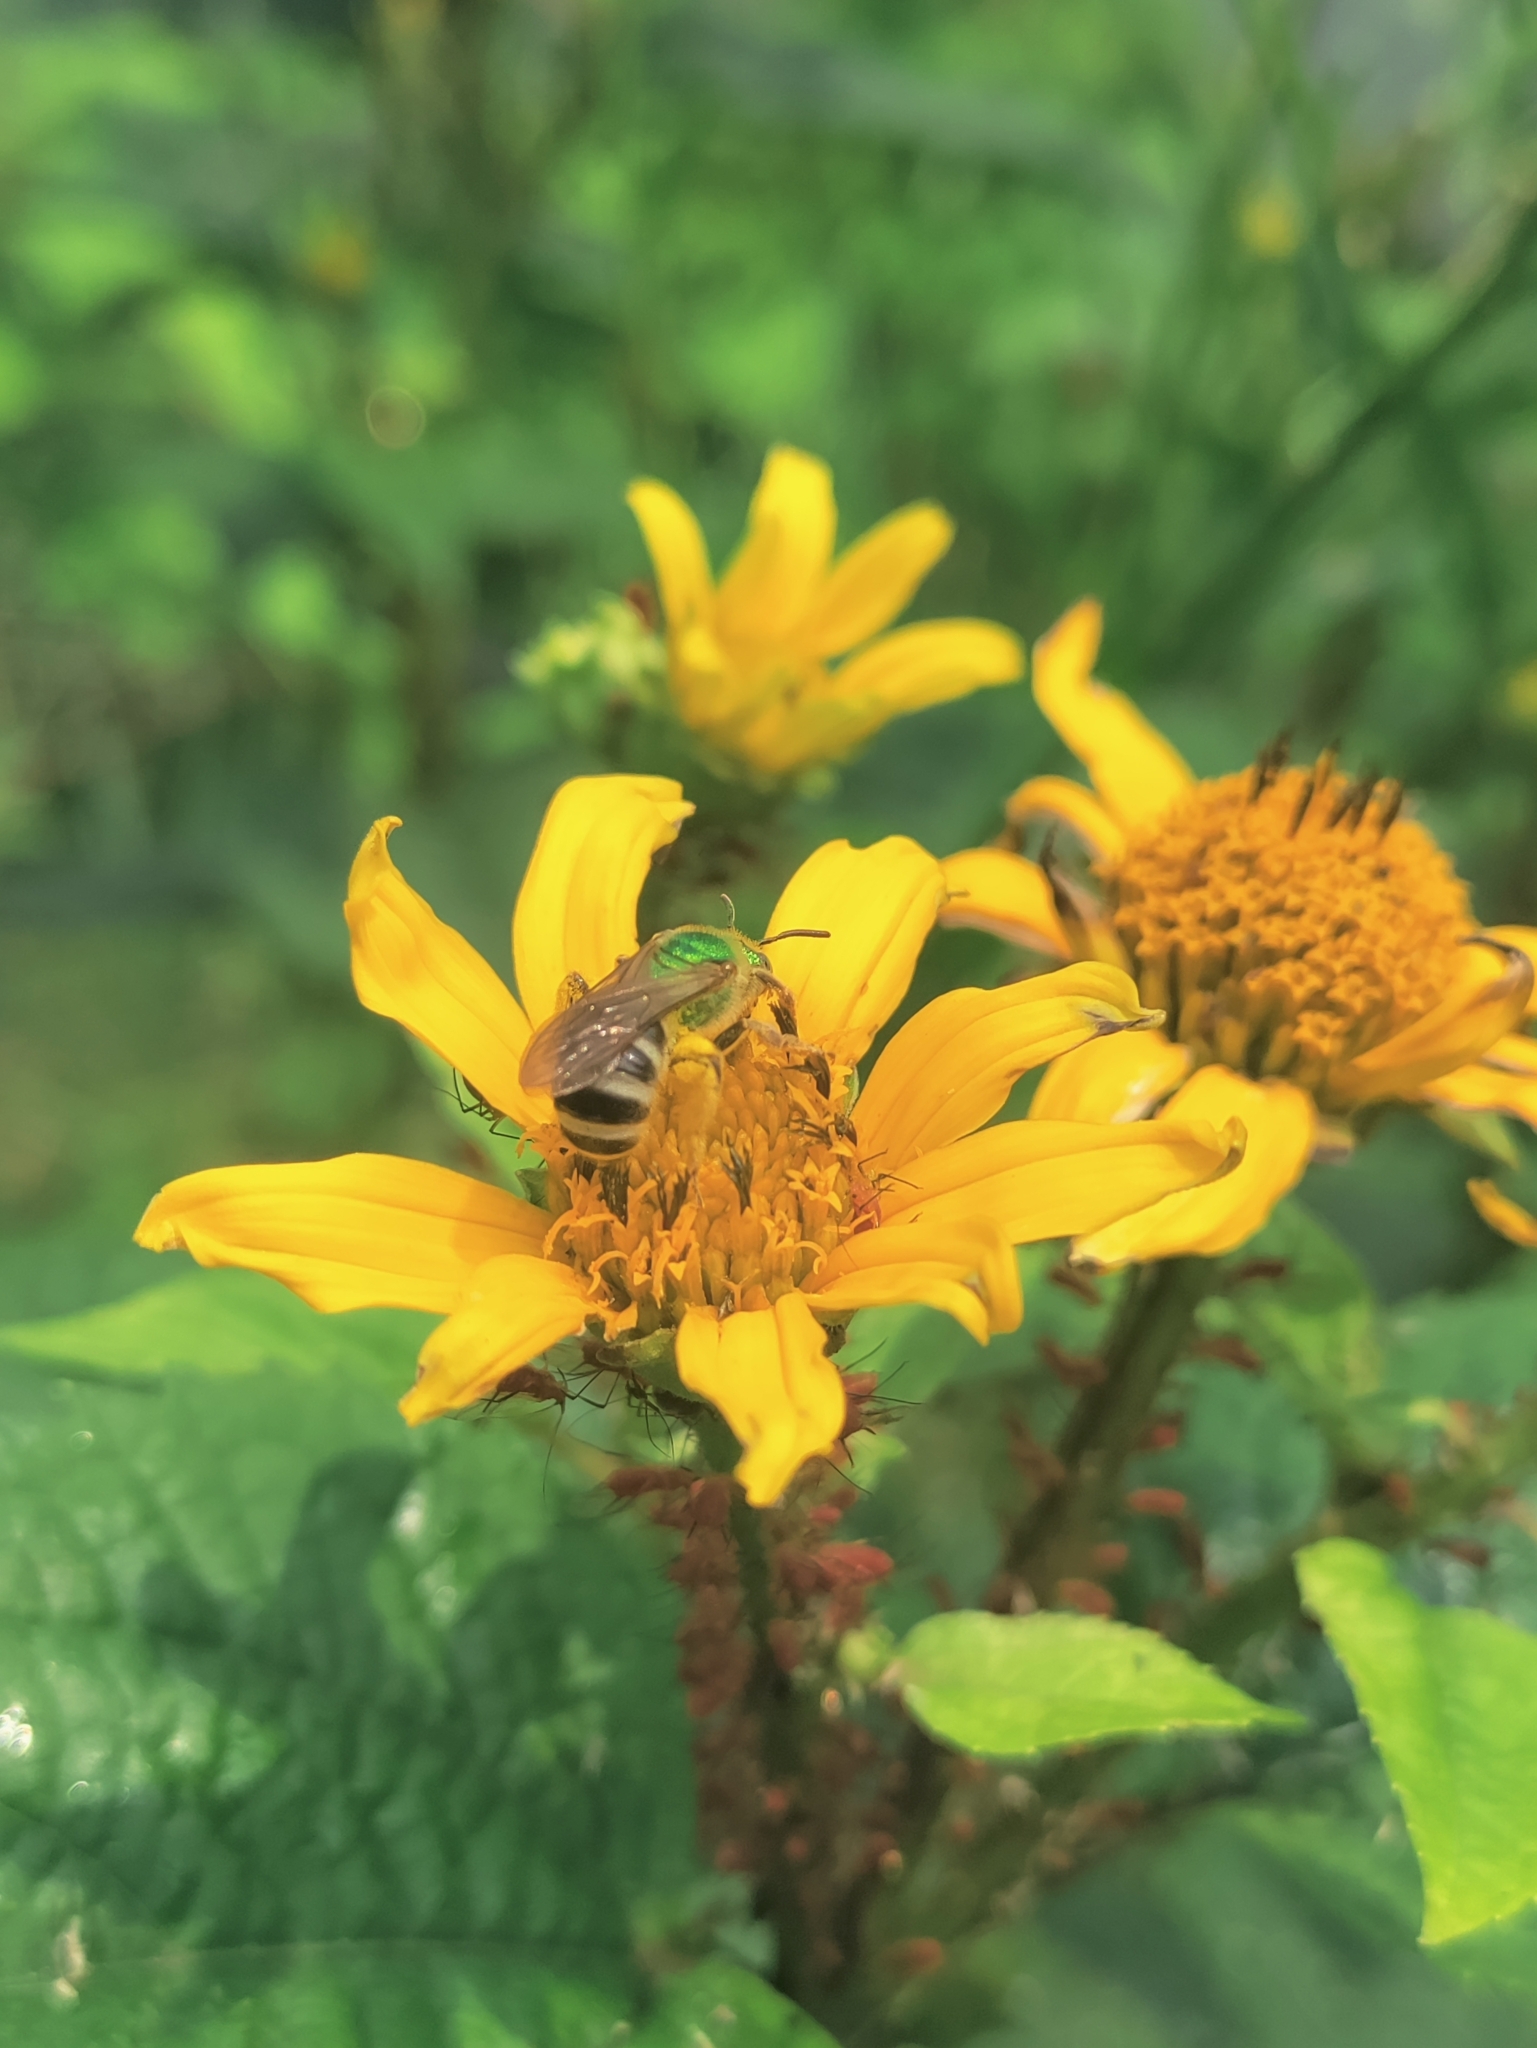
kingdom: Animalia
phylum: Arthropoda
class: Insecta
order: Hymenoptera
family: Halictidae
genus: Agapostemon
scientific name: Agapostemon virescens
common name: Bicolored striped sweat bee
